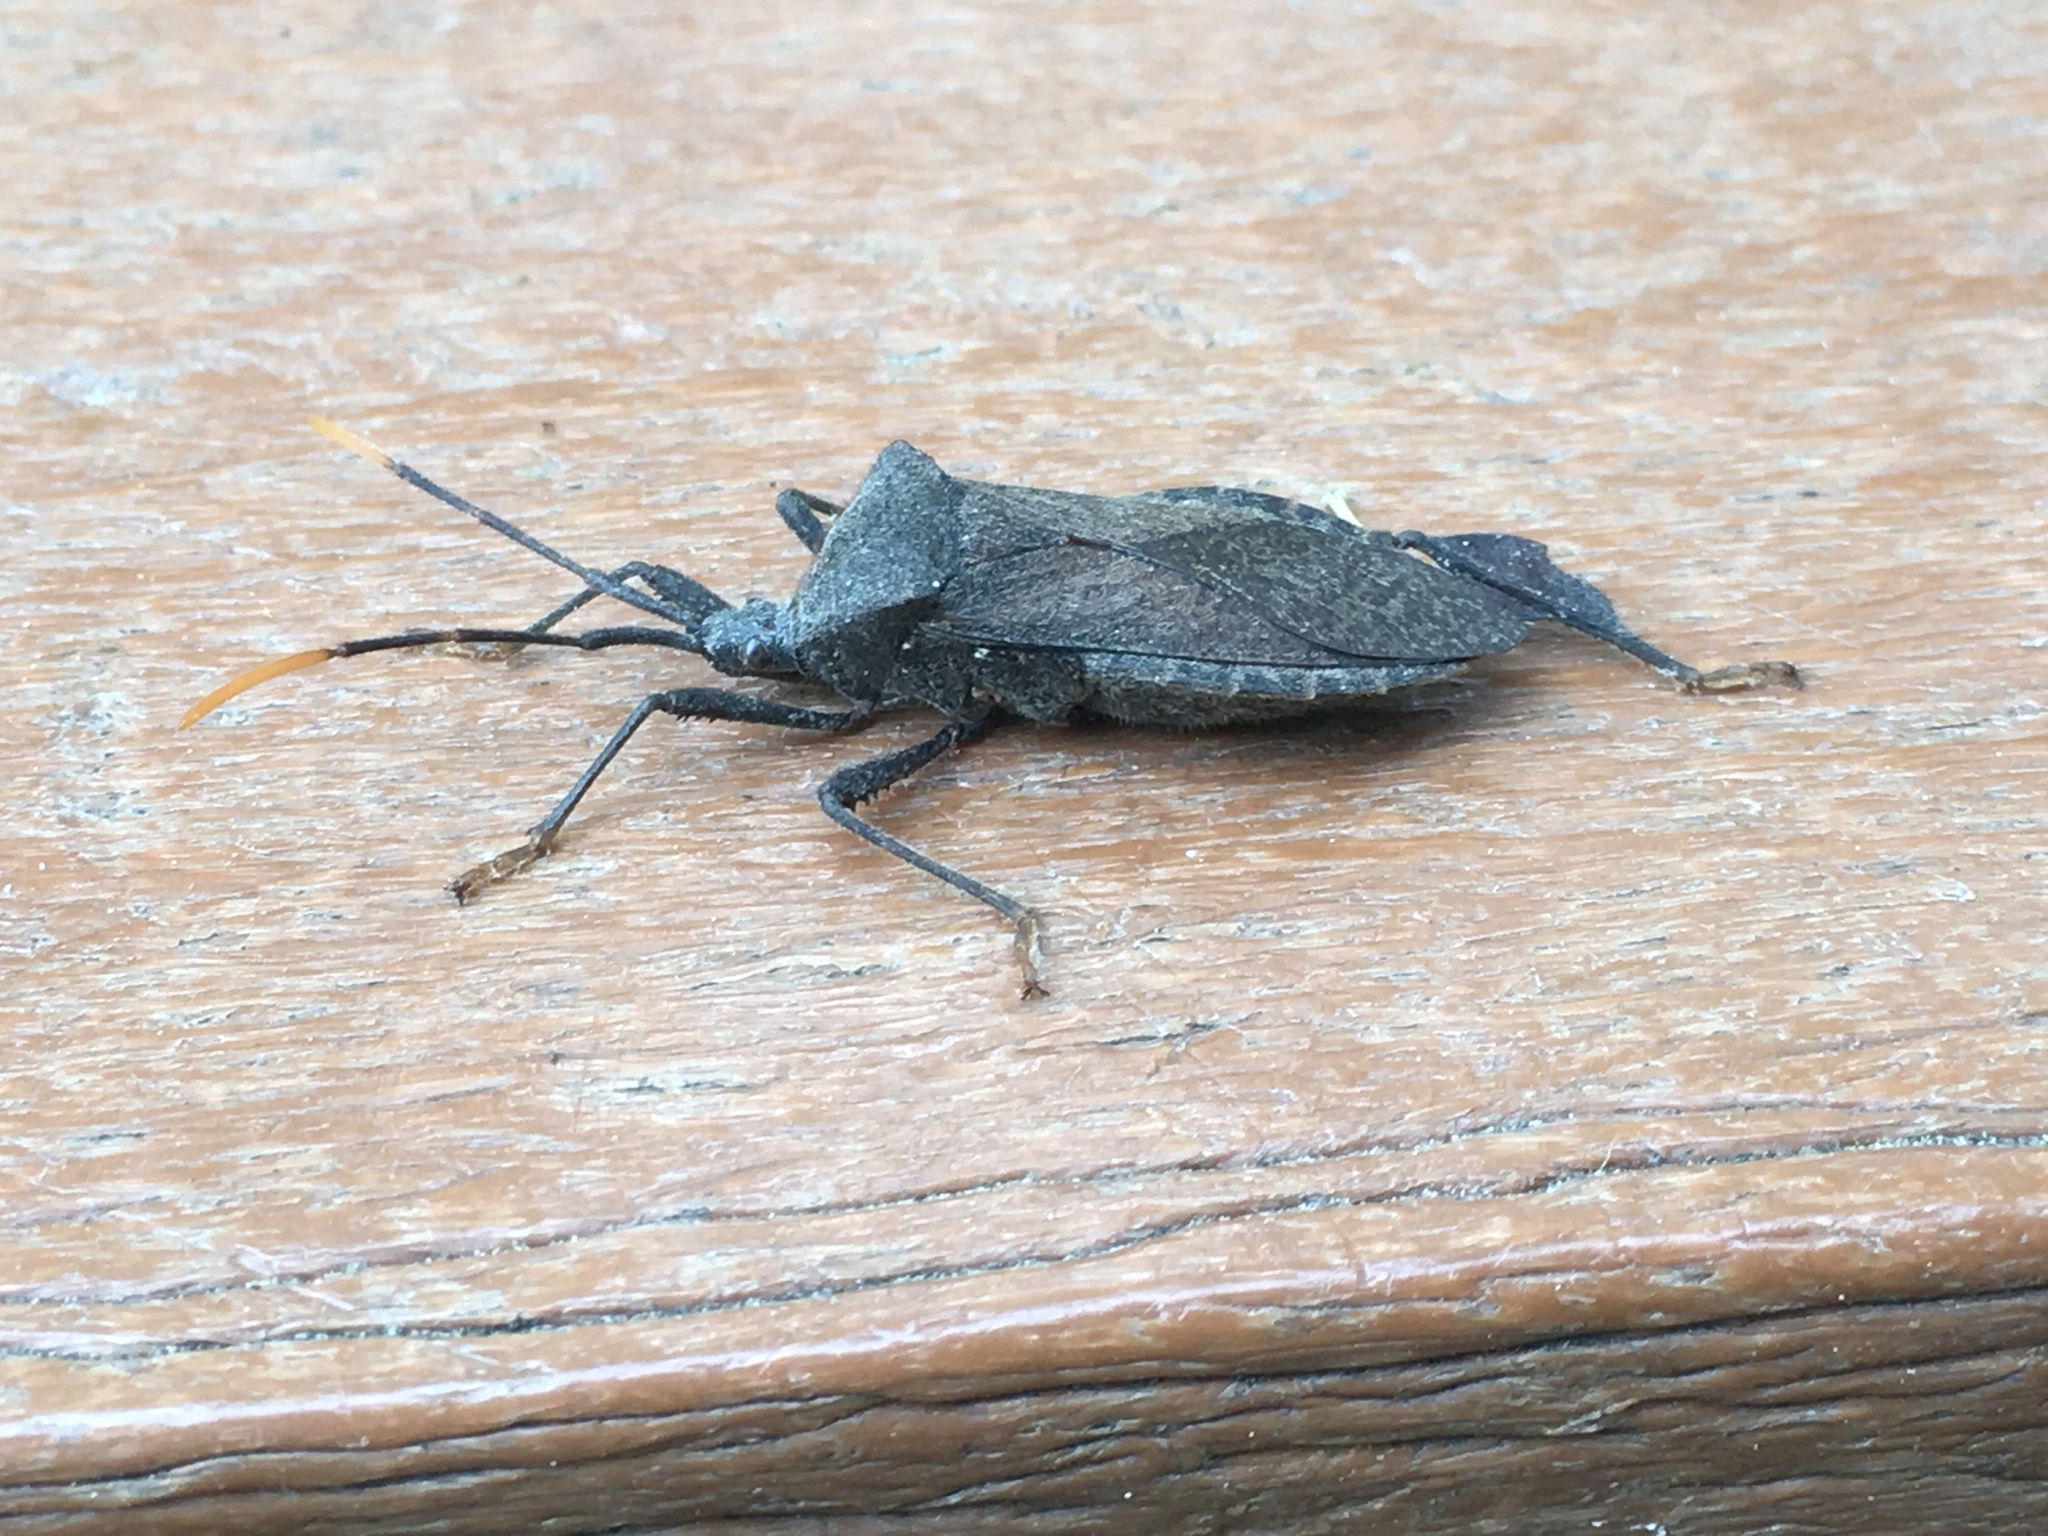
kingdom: Animalia
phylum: Arthropoda
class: Insecta
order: Hemiptera
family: Coreidae
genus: Acanthocephala
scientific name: Acanthocephala terminalis
